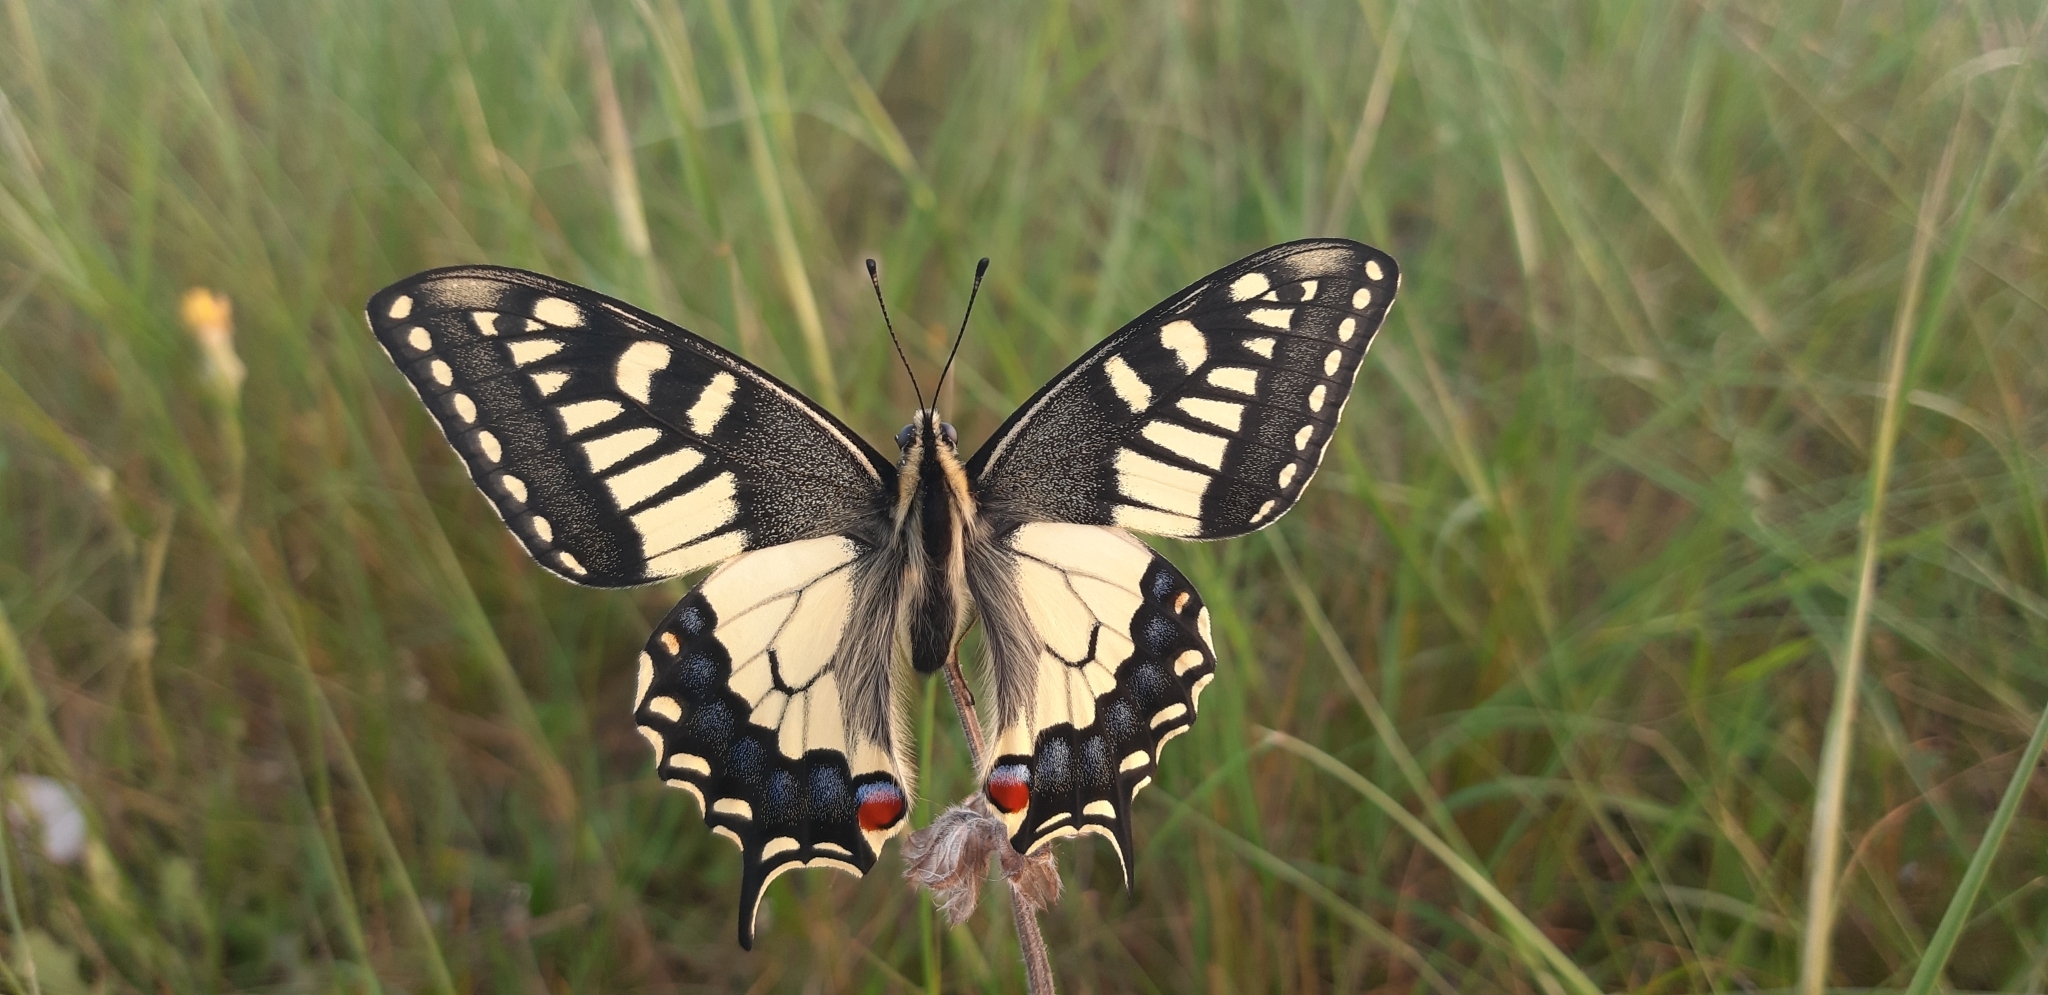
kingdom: Animalia
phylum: Arthropoda
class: Insecta
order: Lepidoptera
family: Papilionidae
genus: Papilio
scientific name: Papilio machaon
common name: Swallowtail
